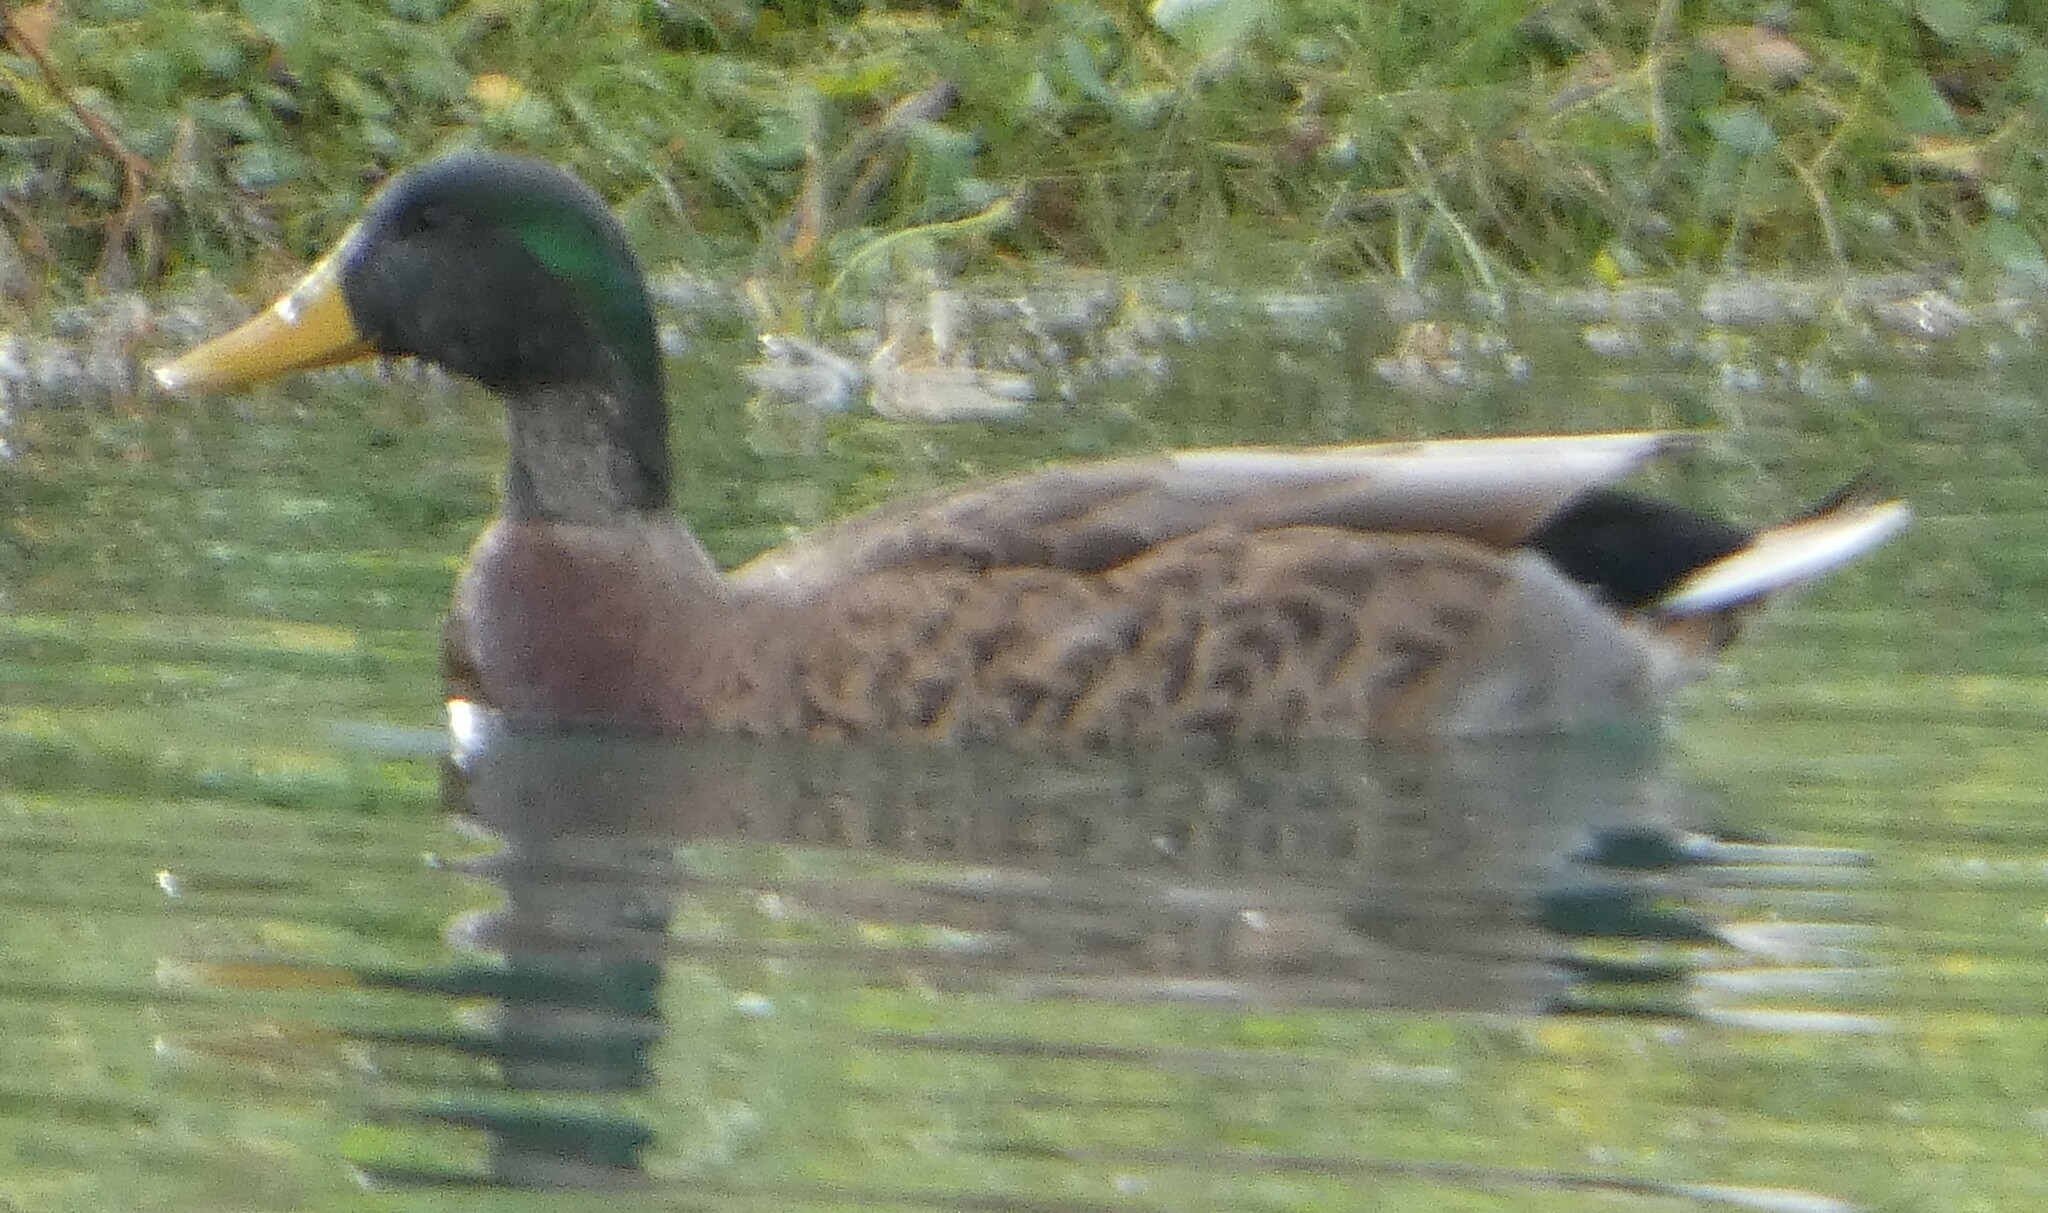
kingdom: Animalia
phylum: Chordata
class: Aves
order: Anseriformes
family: Anatidae
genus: Anas
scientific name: Anas platyrhynchos
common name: Mallard
